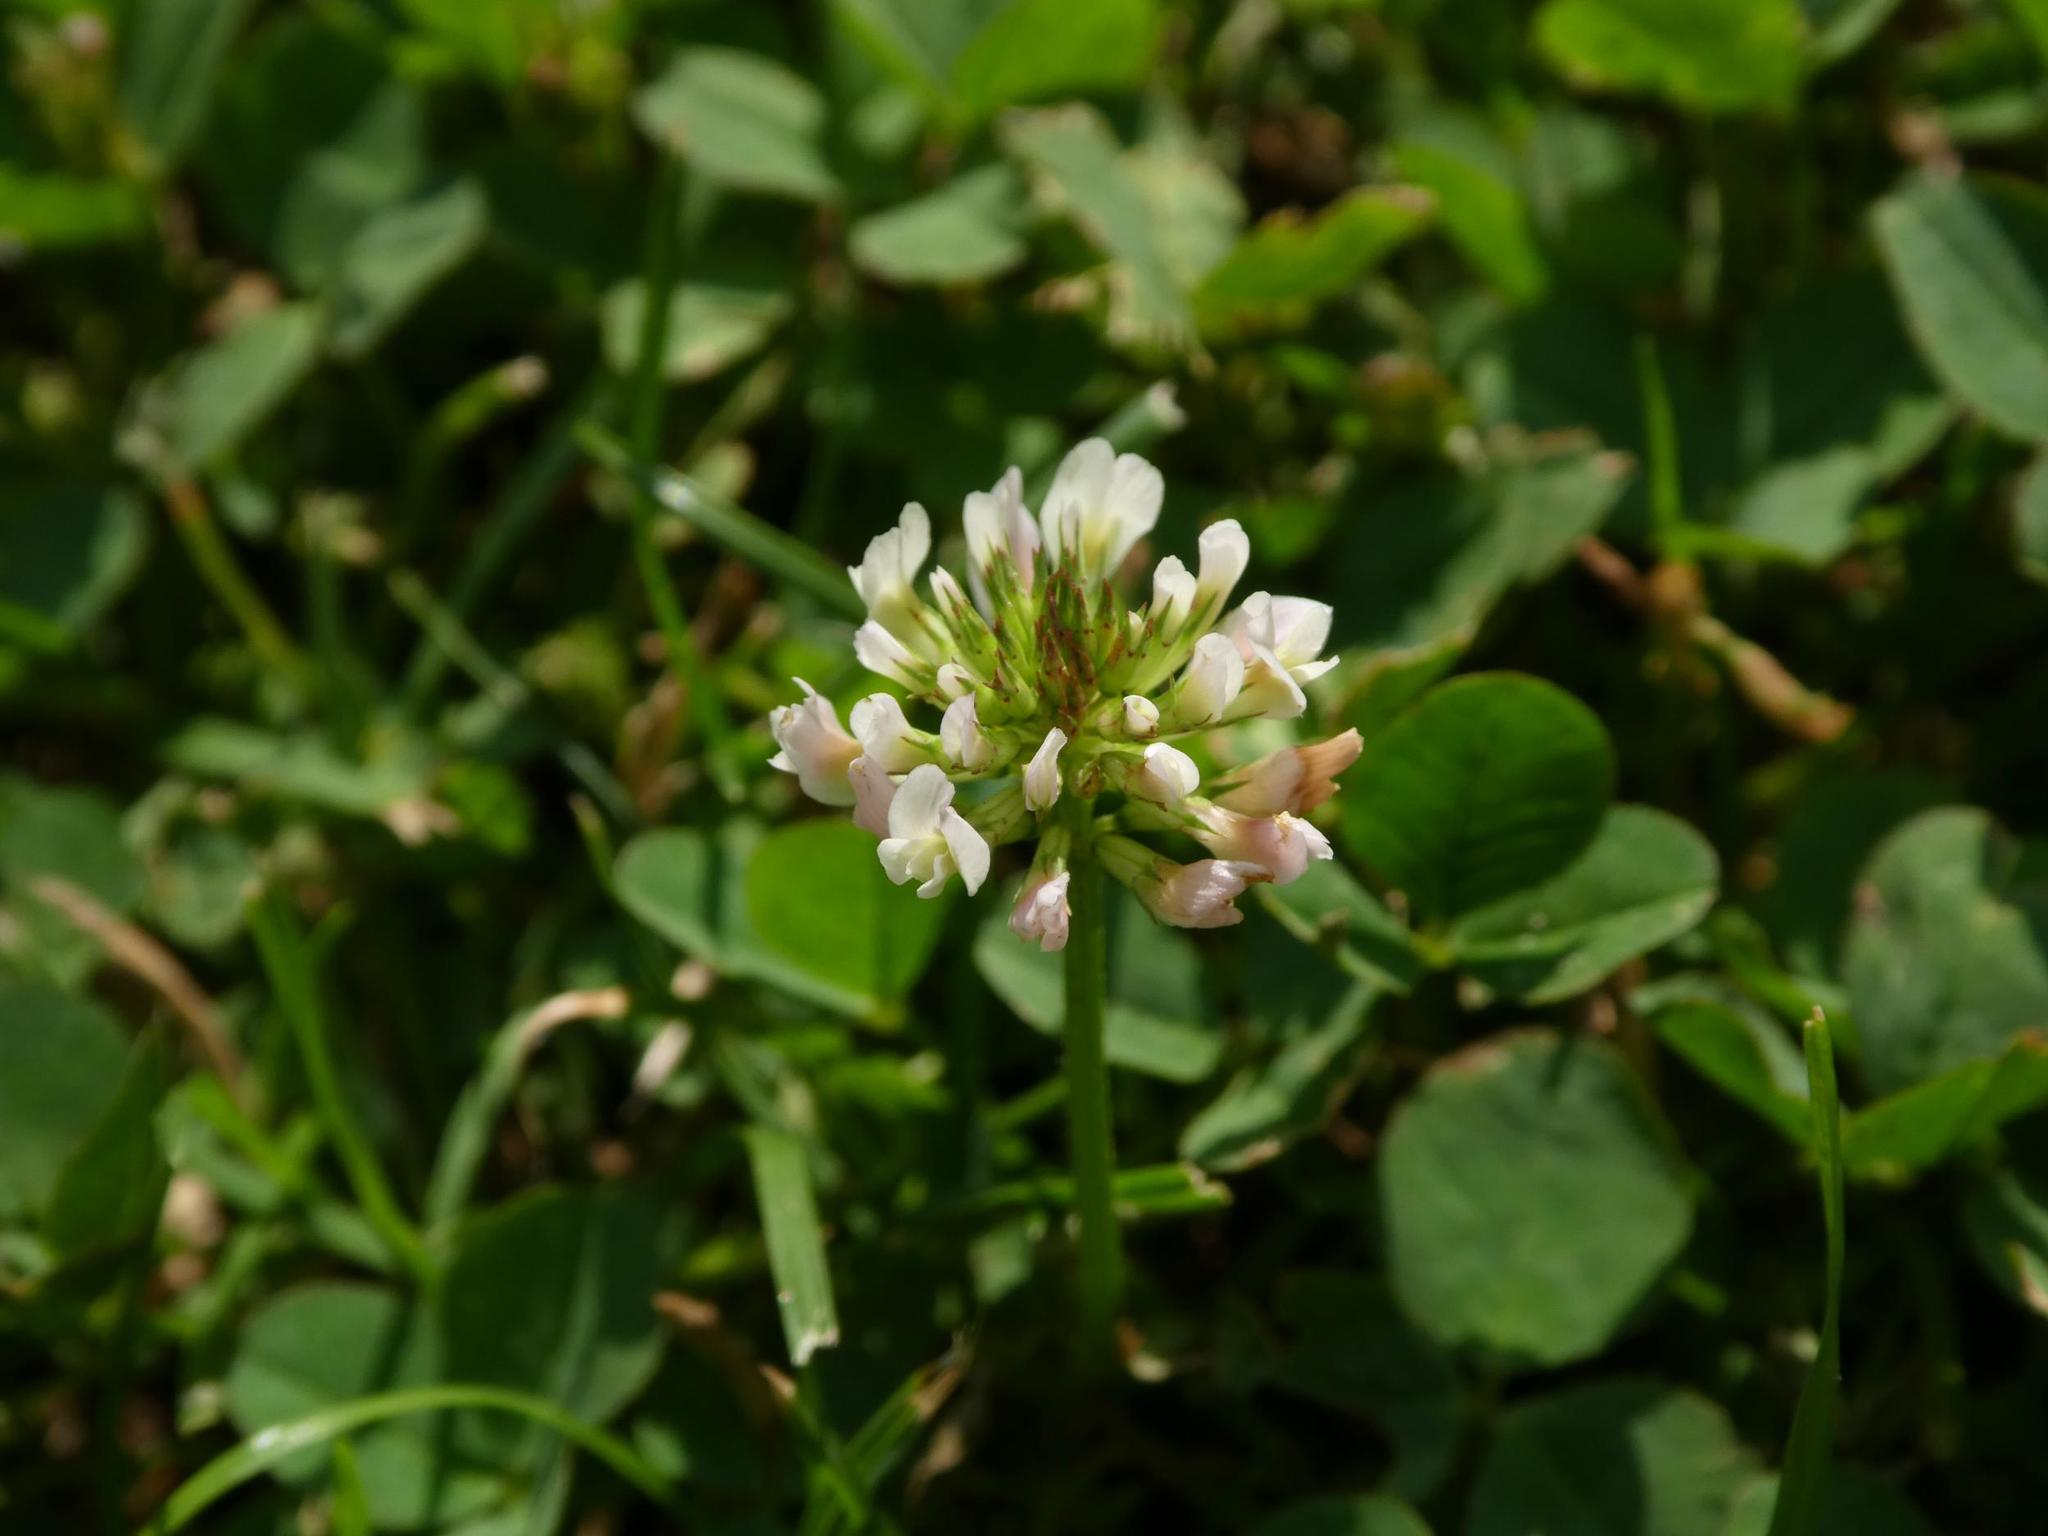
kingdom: Plantae
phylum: Tracheophyta
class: Magnoliopsida
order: Fabales
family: Fabaceae
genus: Trifolium
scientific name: Trifolium repens
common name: White clover
